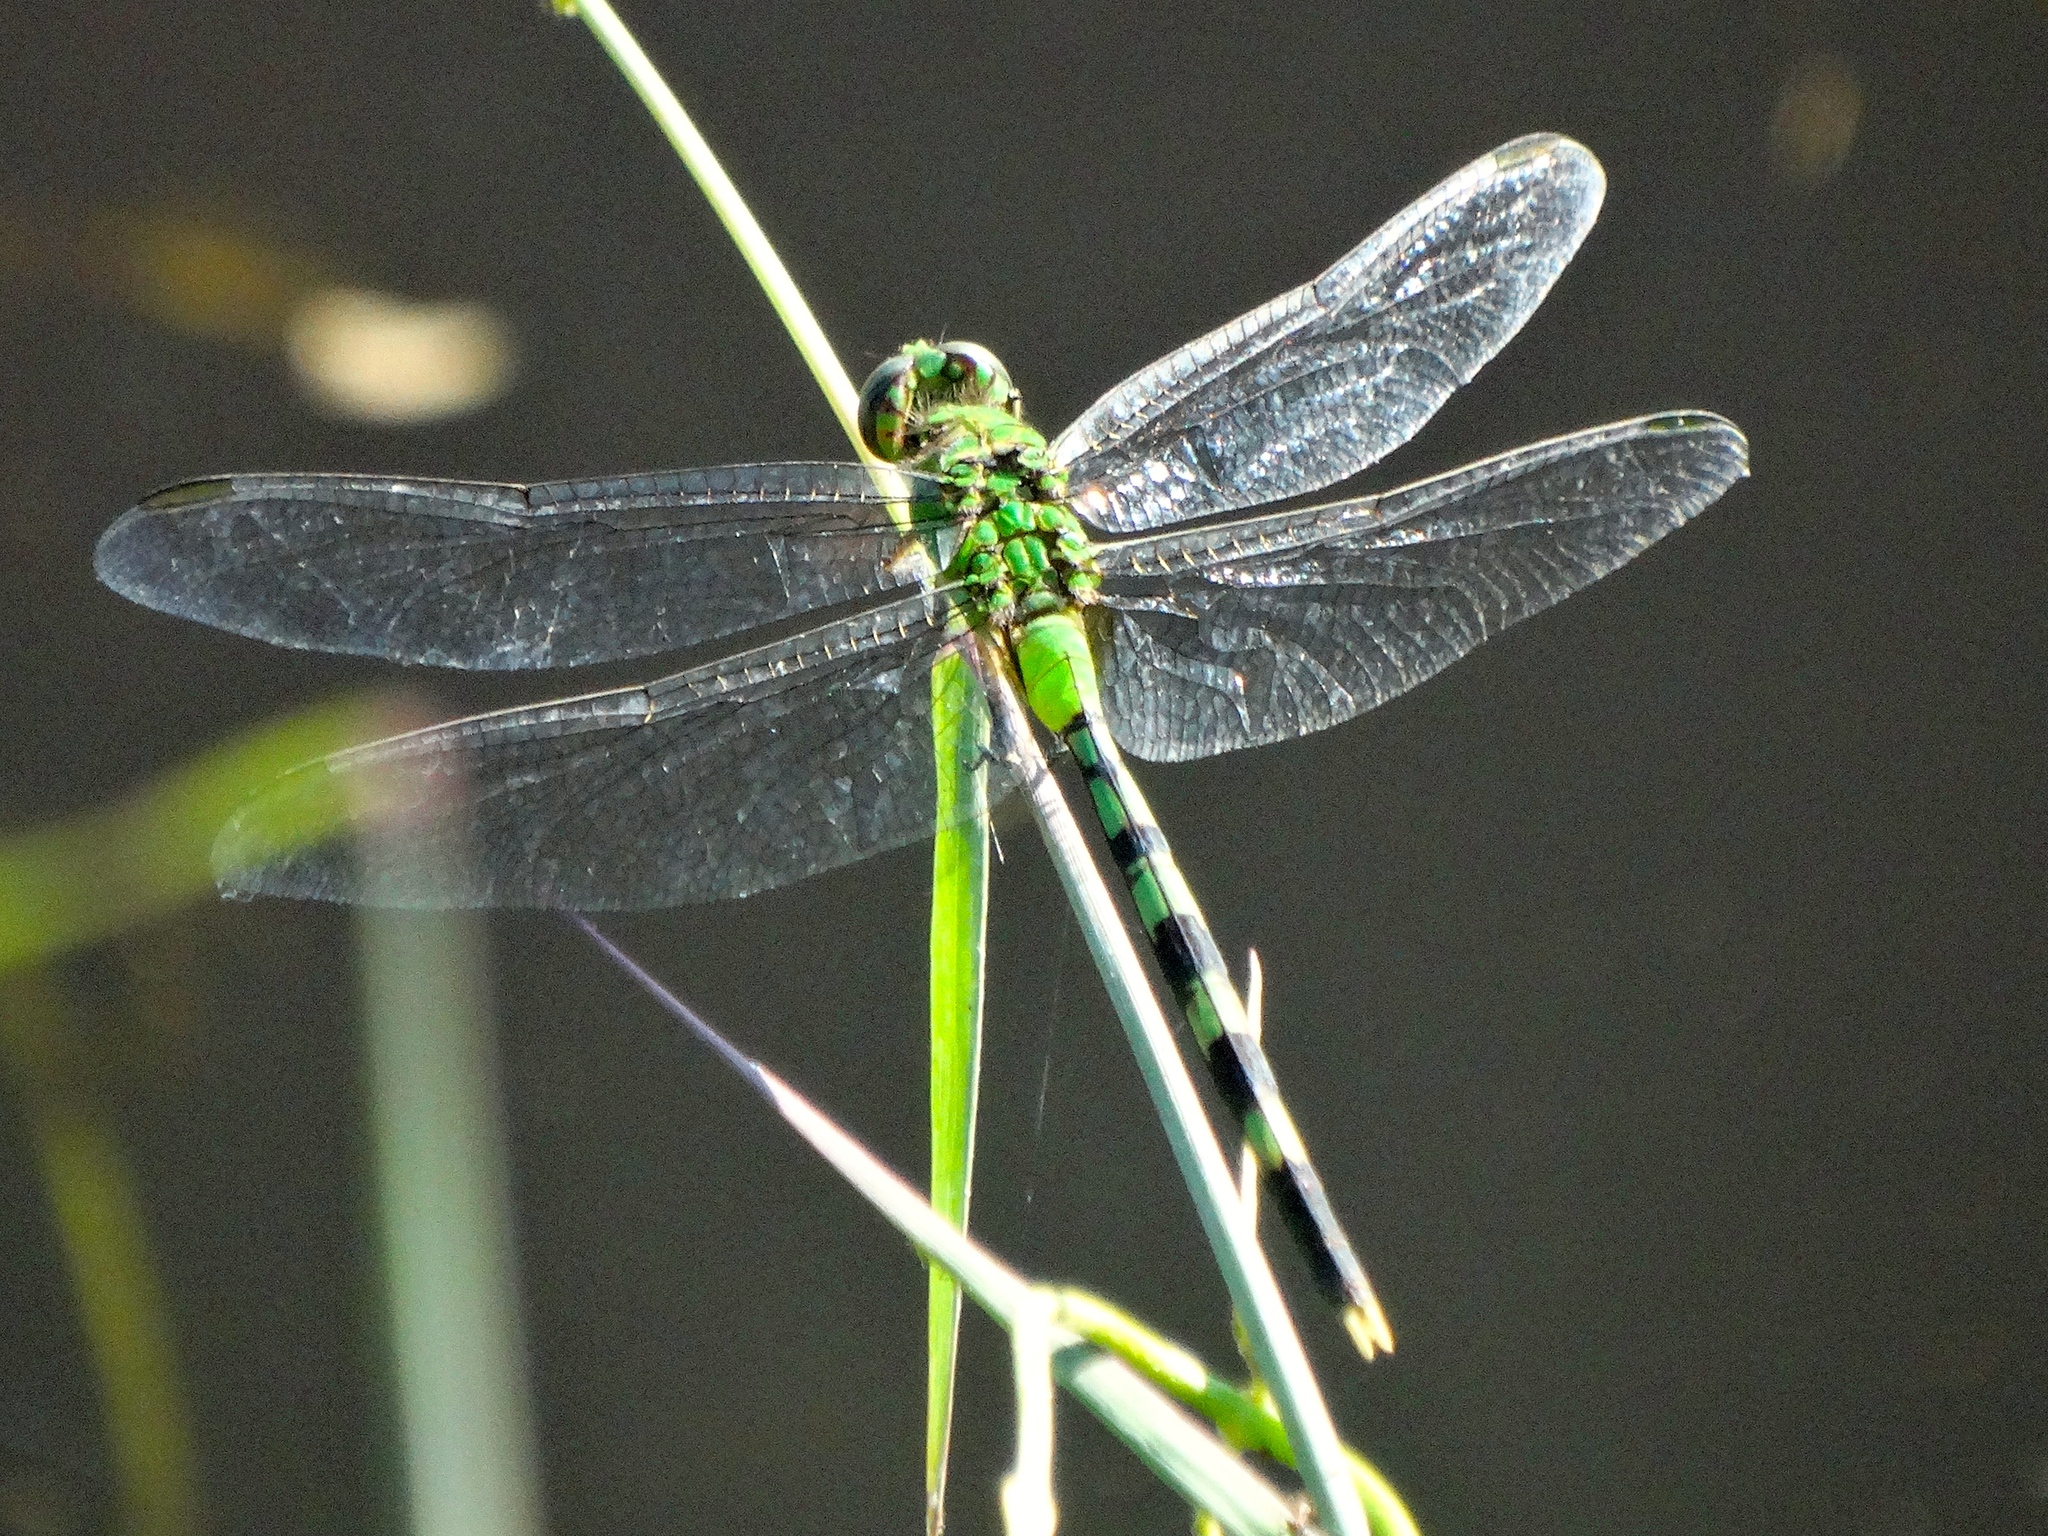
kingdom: Animalia
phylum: Arthropoda
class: Insecta
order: Odonata
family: Libellulidae
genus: Erythemis
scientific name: Erythemis vesiculosa
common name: Great pondhawk
